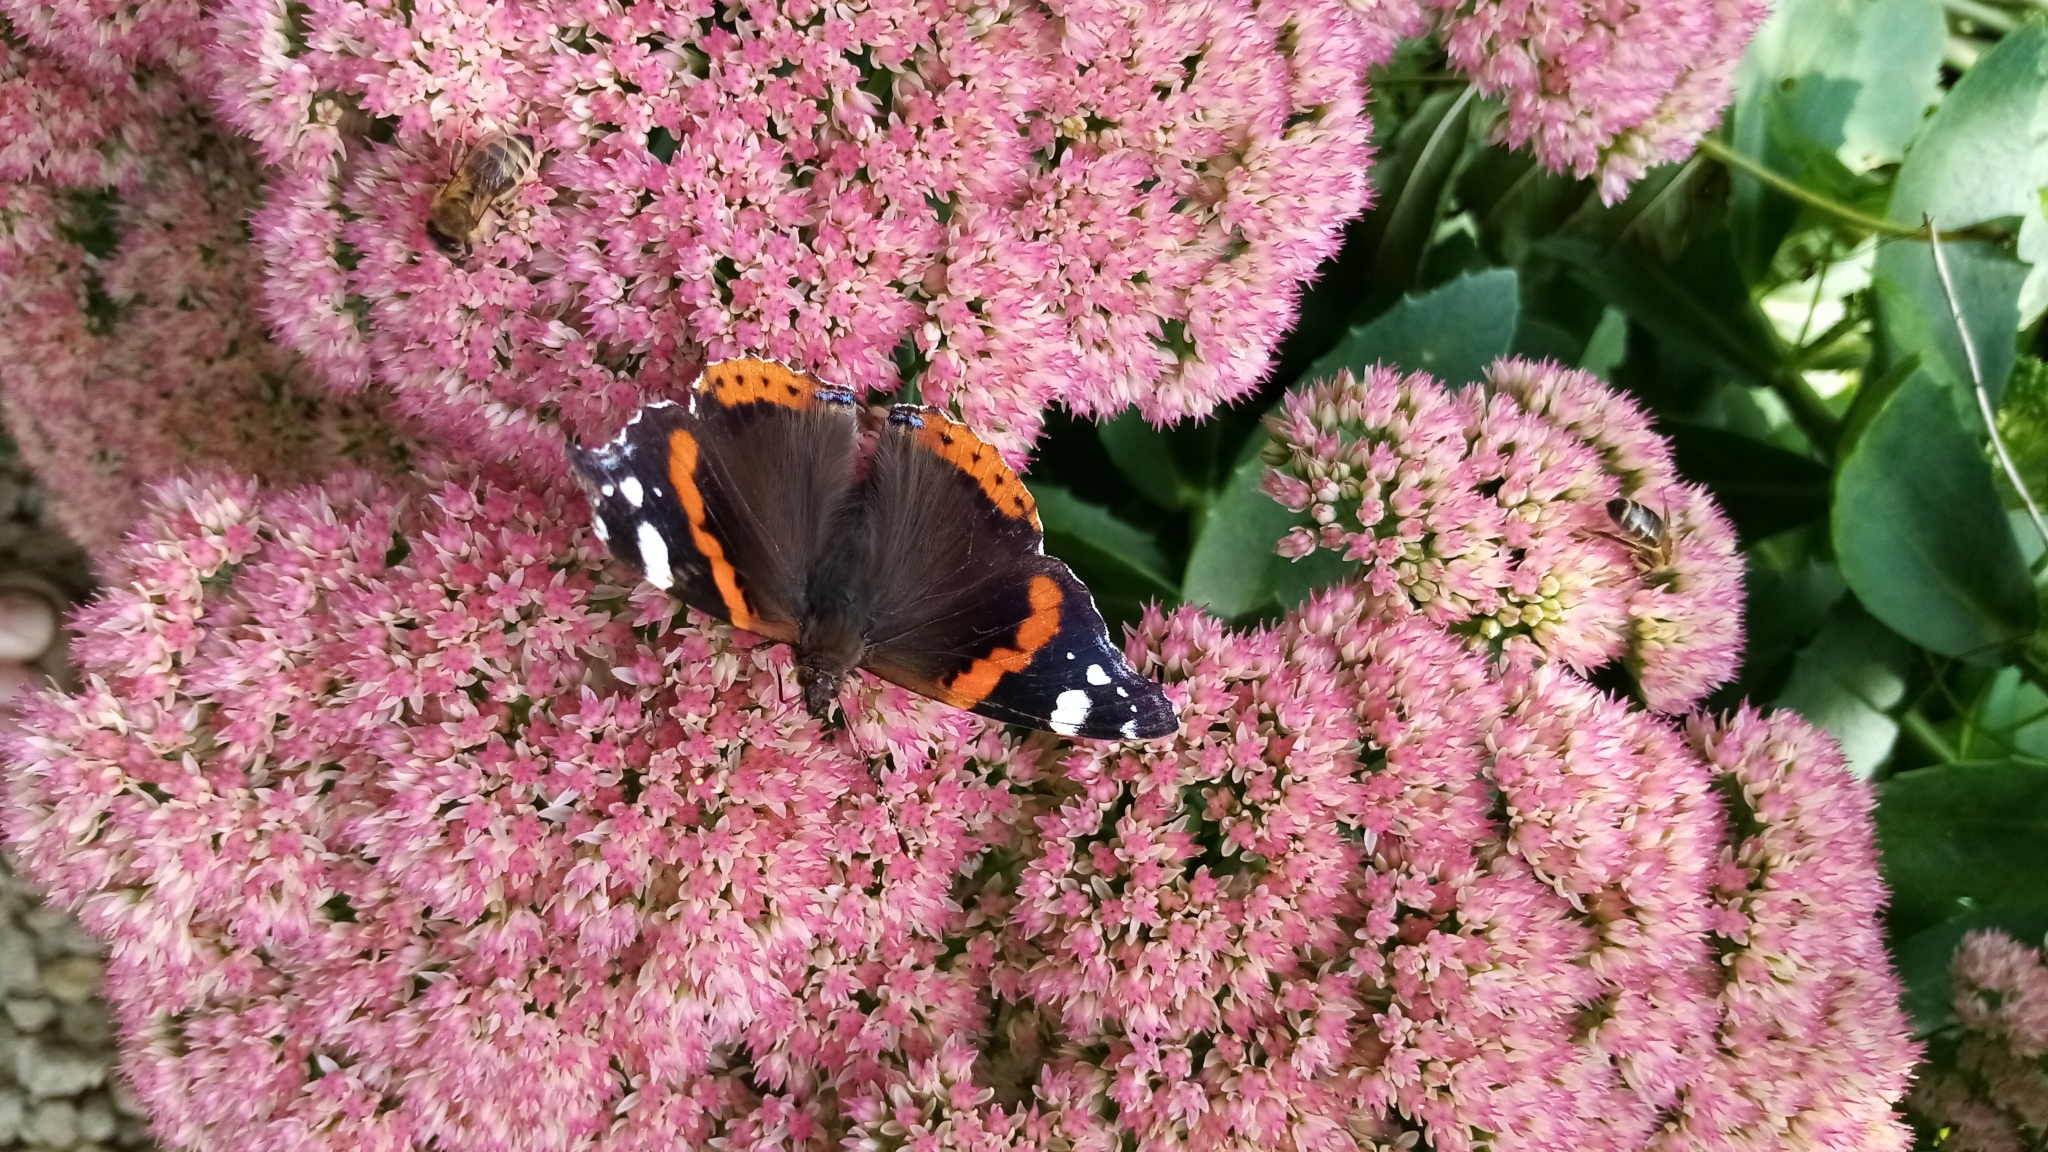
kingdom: Animalia
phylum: Arthropoda
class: Insecta
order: Lepidoptera
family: Nymphalidae
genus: Vanessa
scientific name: Vanessa atalanta
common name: Red admiral
